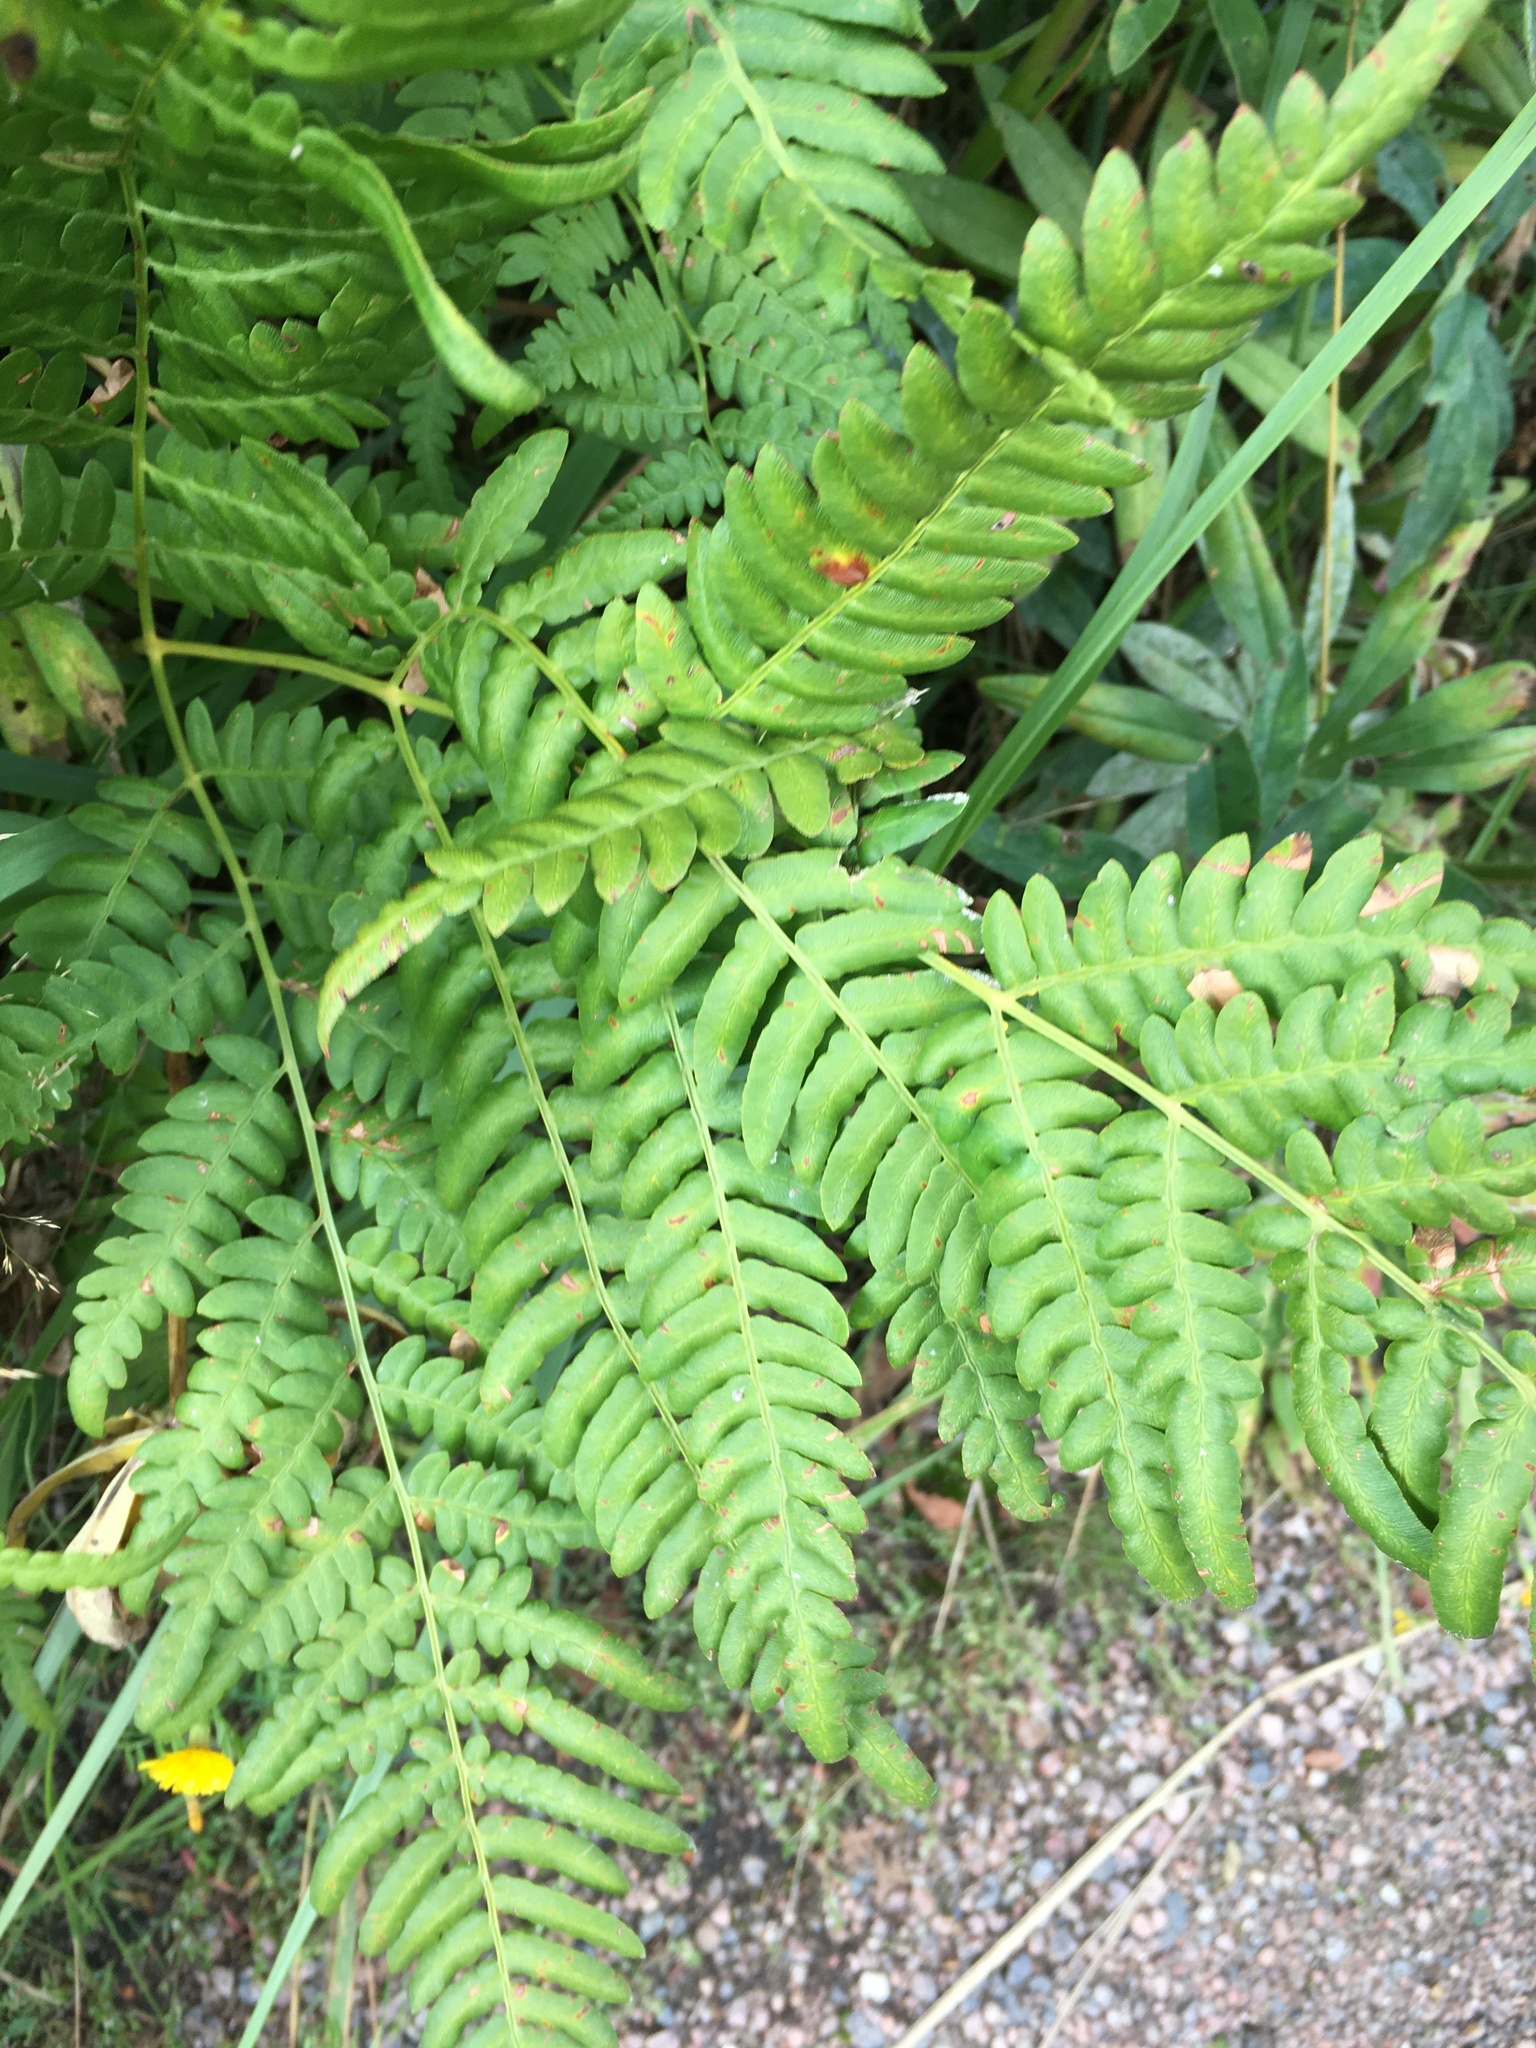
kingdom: Plantae
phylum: Tracheophyta
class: Polypodiopsida
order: Polypodiales
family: Dennstaedtiaceae
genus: Pteridium
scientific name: Pteridium aquilinum
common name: Bracken
